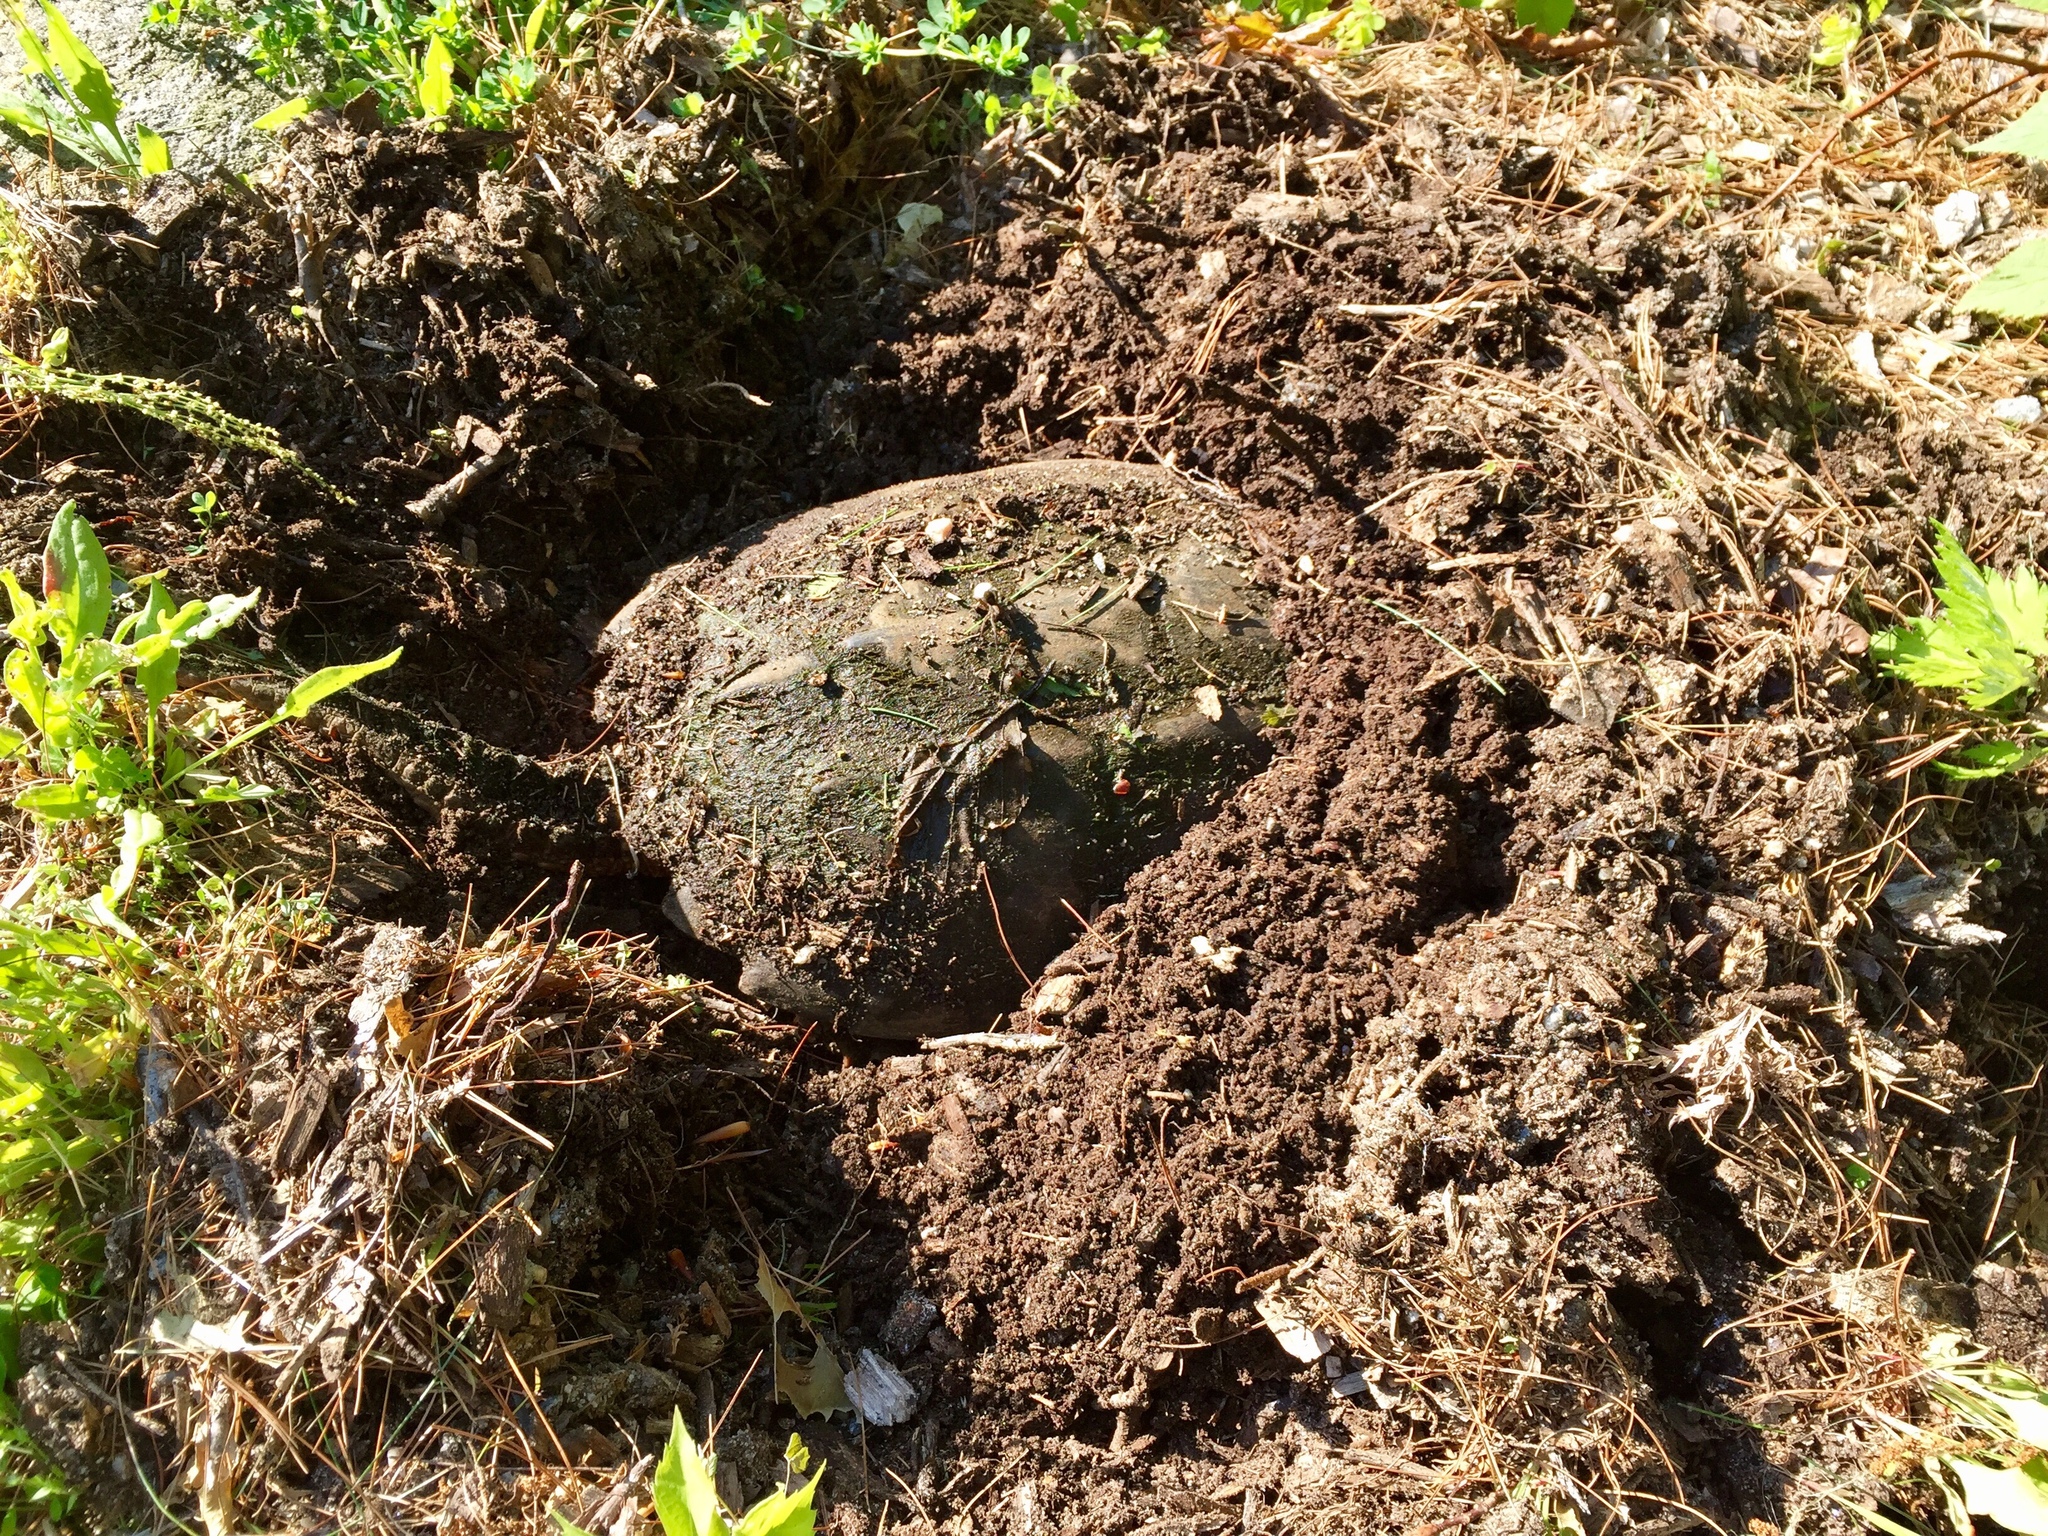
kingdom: Animalia
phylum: Chordata
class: Testudines
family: Chelydridae
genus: Chelydra
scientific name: Chelydra serpentina
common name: Common snapping turtle
